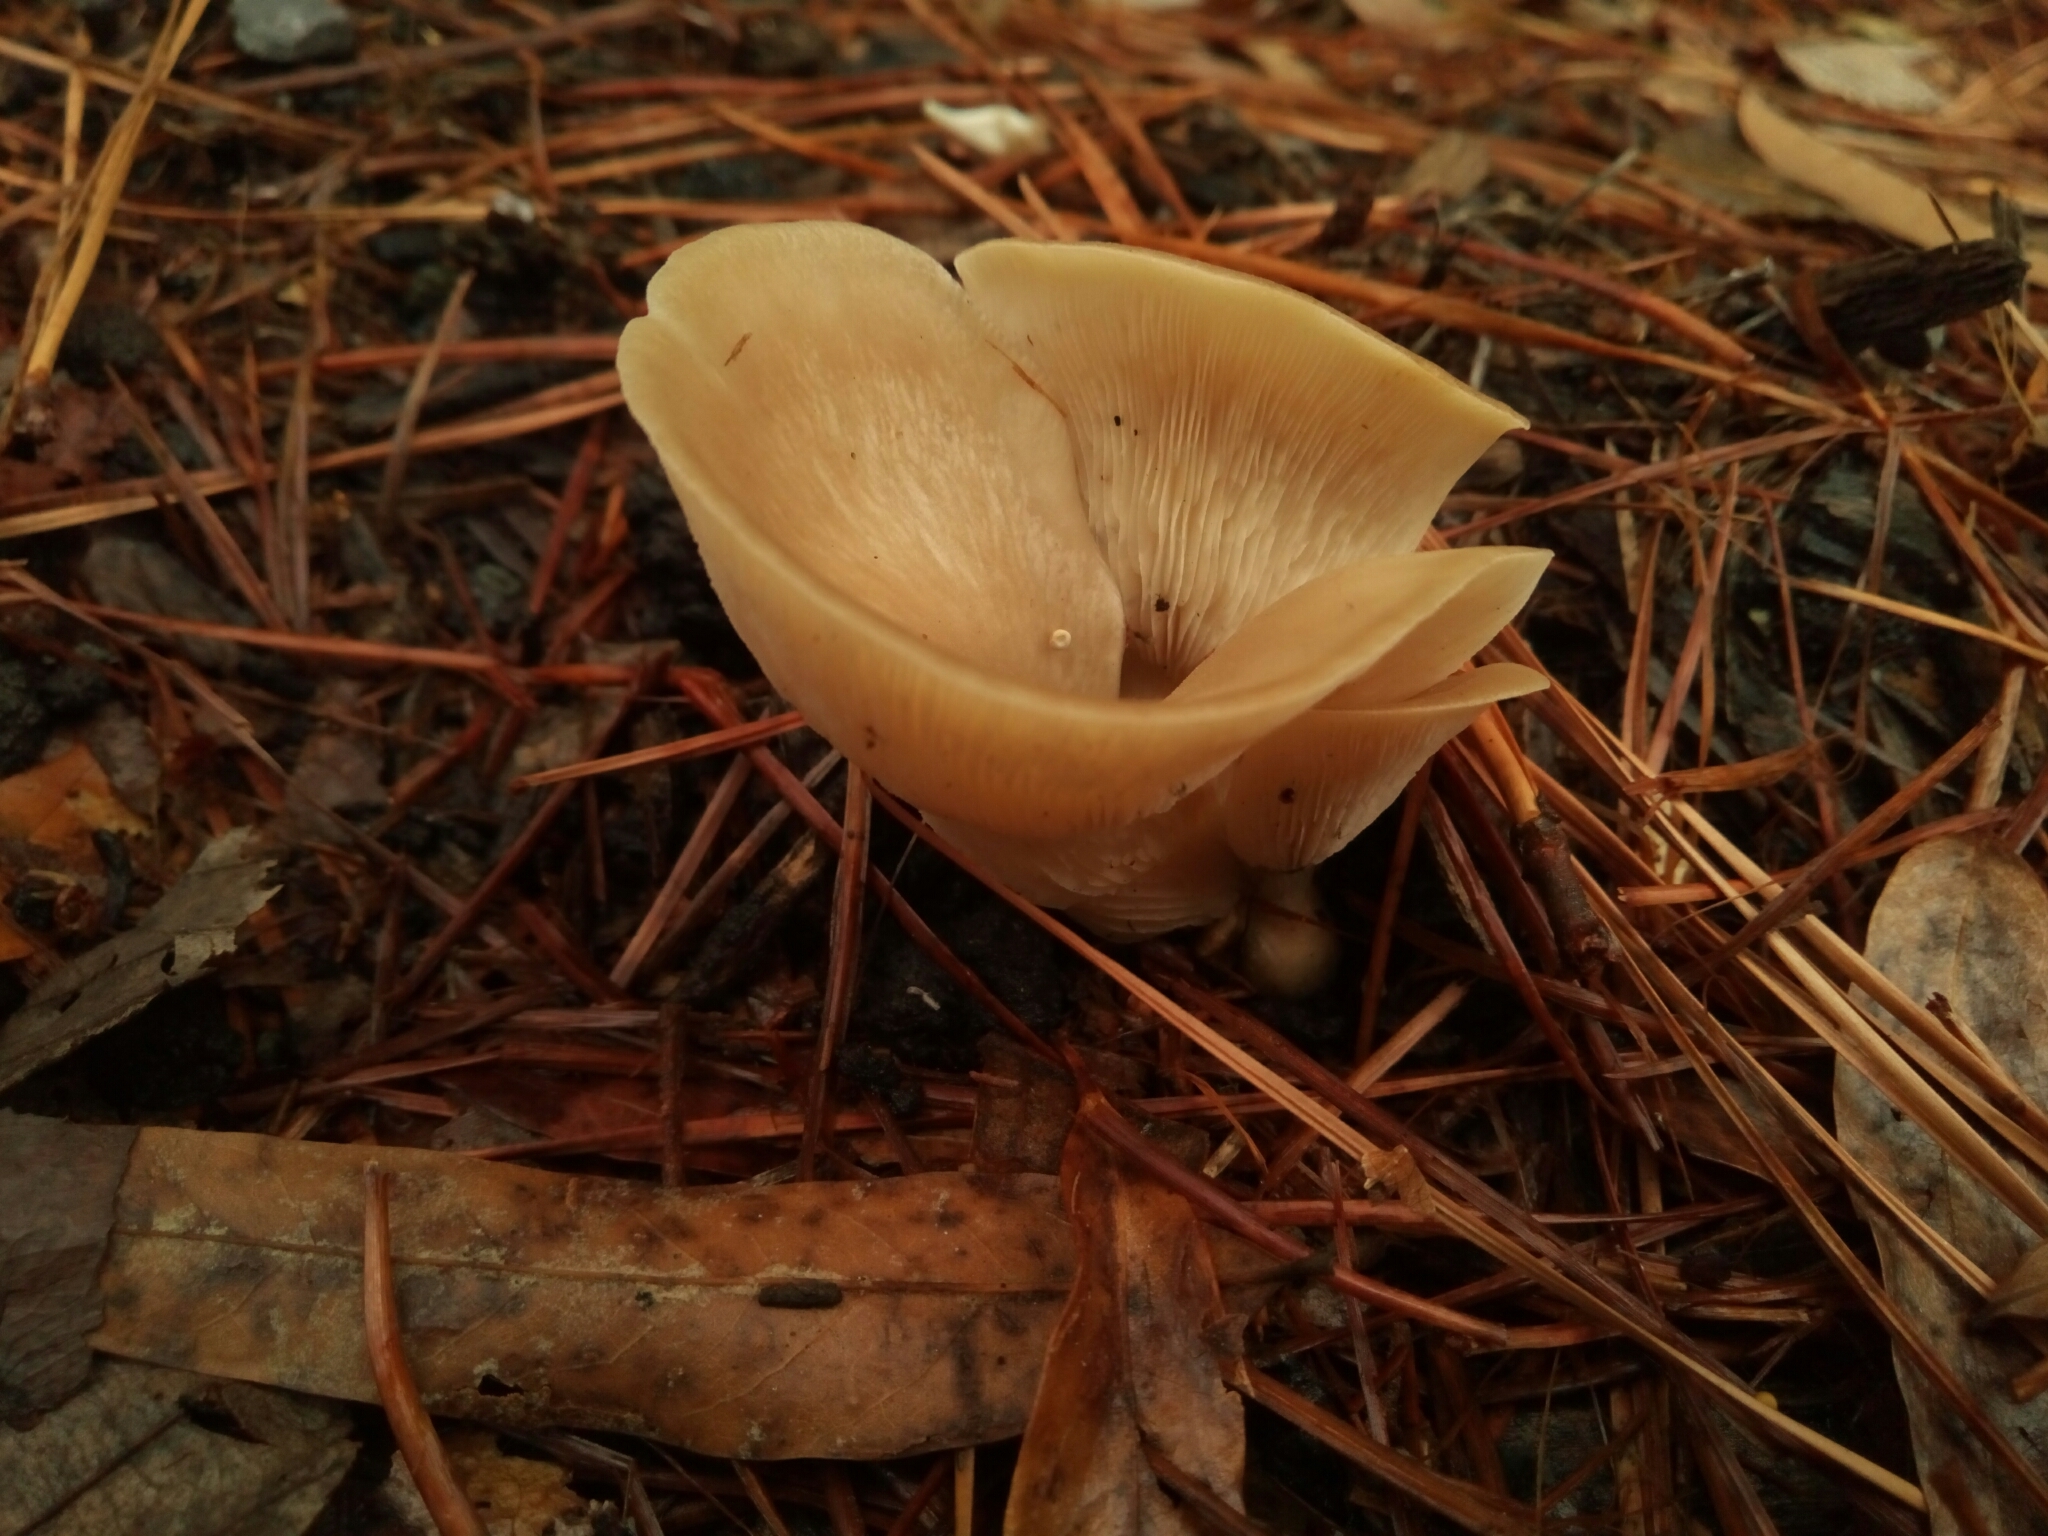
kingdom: Fungi
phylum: Basidiomycota
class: Agaricomycetes
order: Russulales
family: Auriscalpiaceae
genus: Lentinellus
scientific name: Lentinellus cochleatus
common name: Aniseed cockleshell
